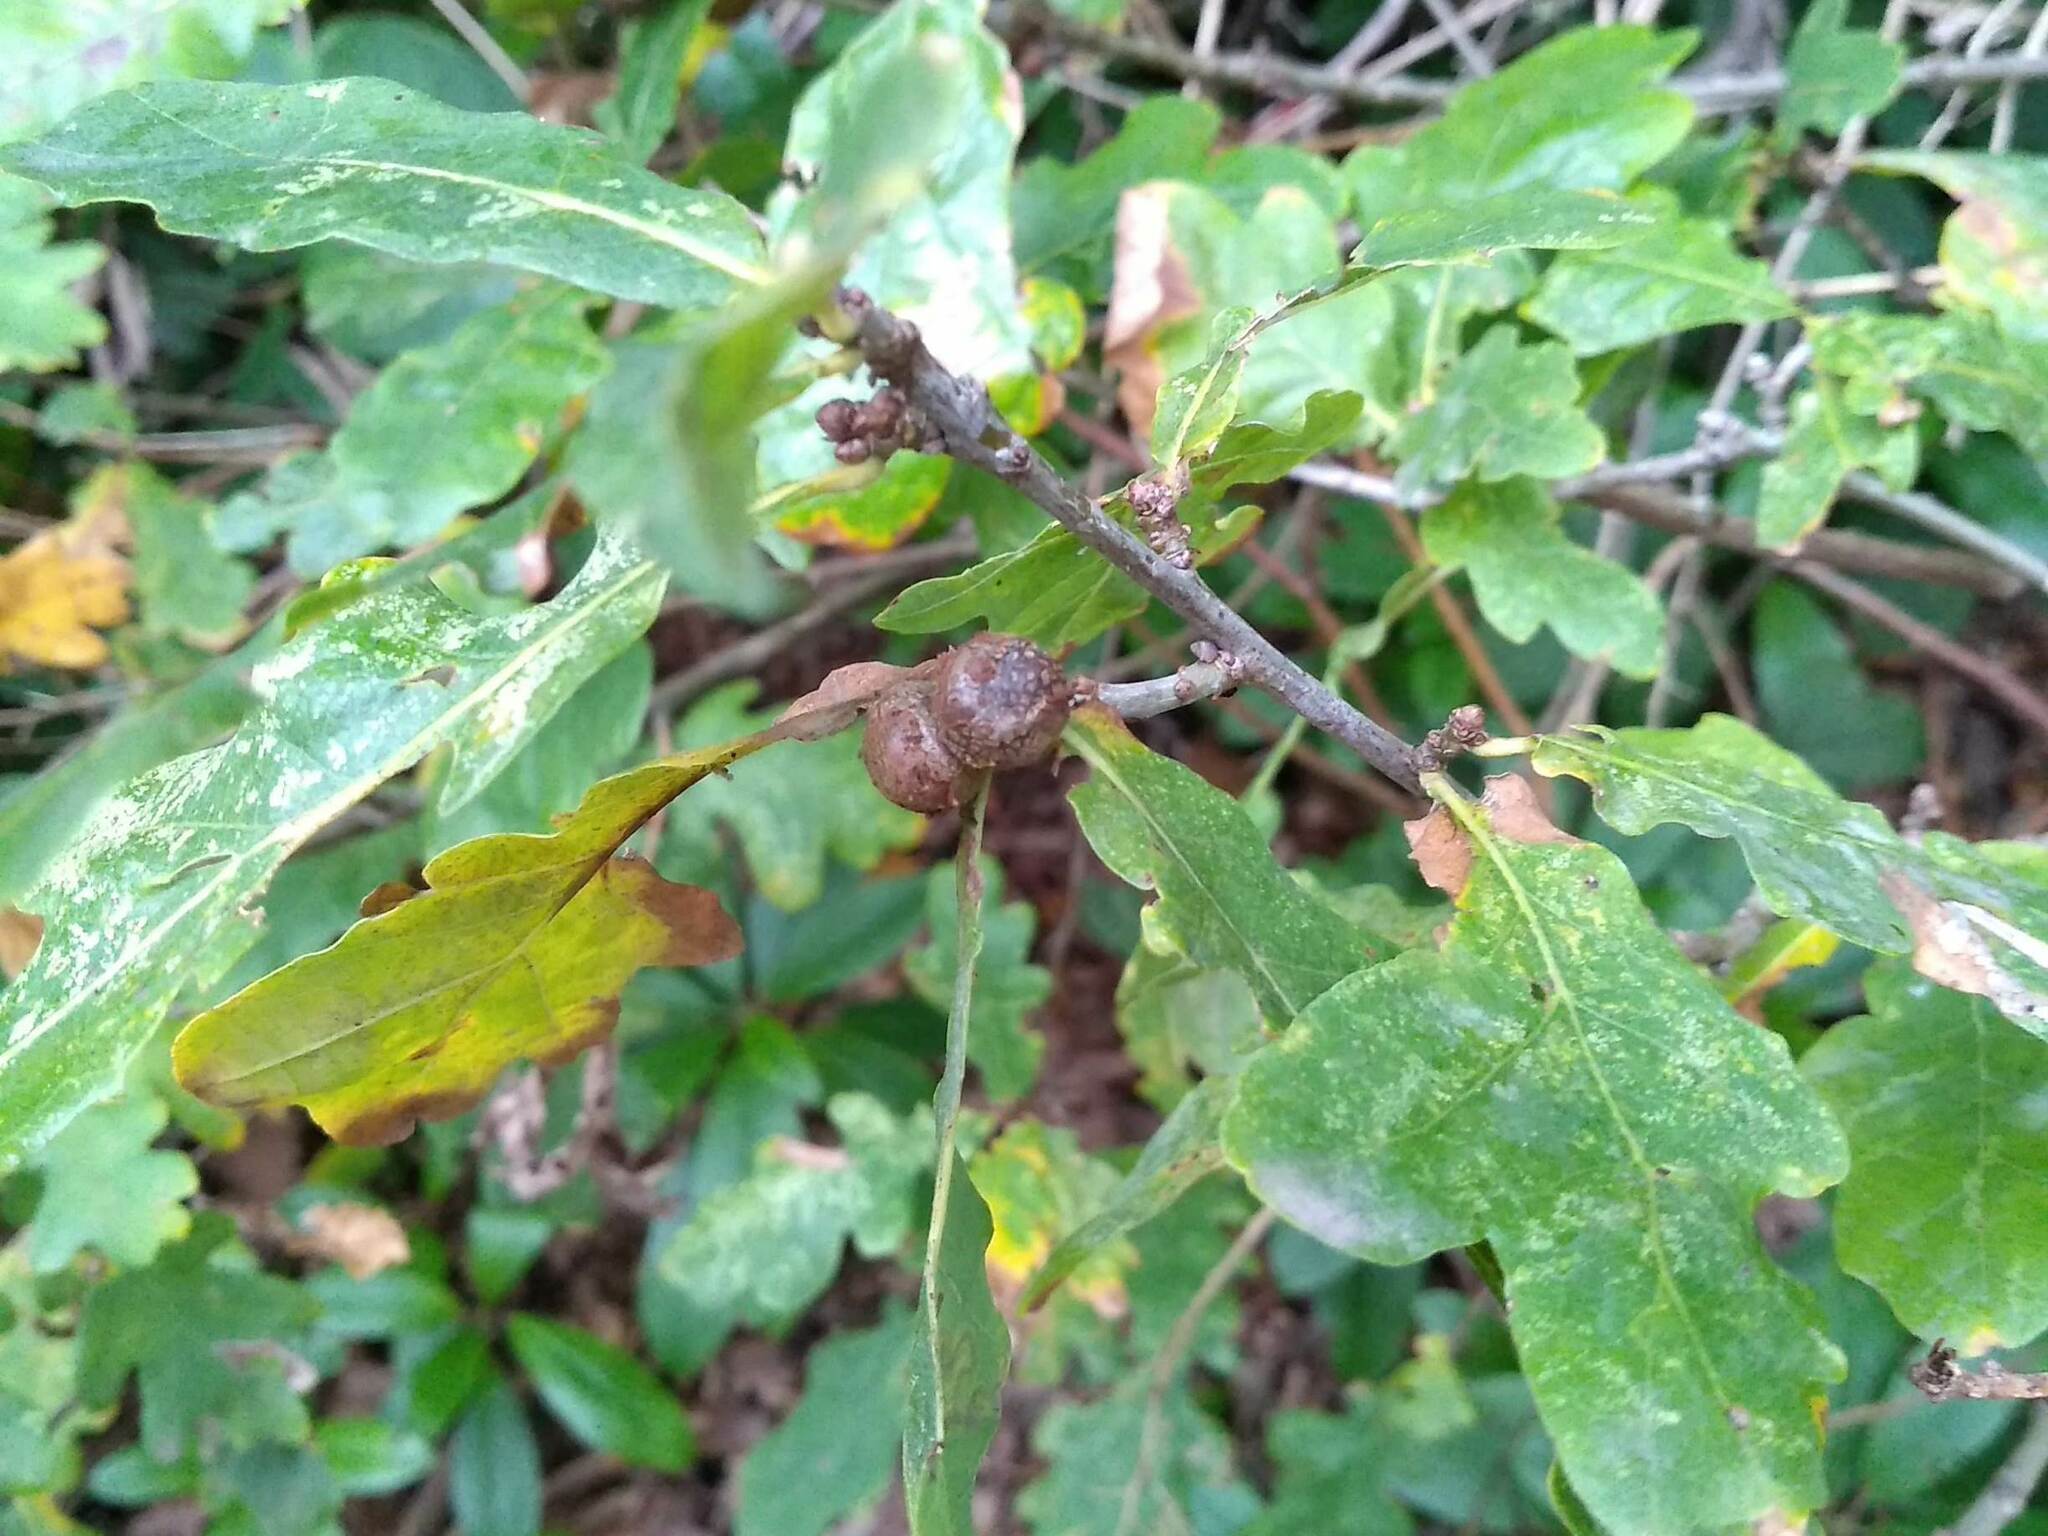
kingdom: Animalia
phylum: Arthropoda
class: Insecta
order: Hymenoptera
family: Cynipidae
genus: Andricus
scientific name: Andricus lignicolus
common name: Cola-nut gall
